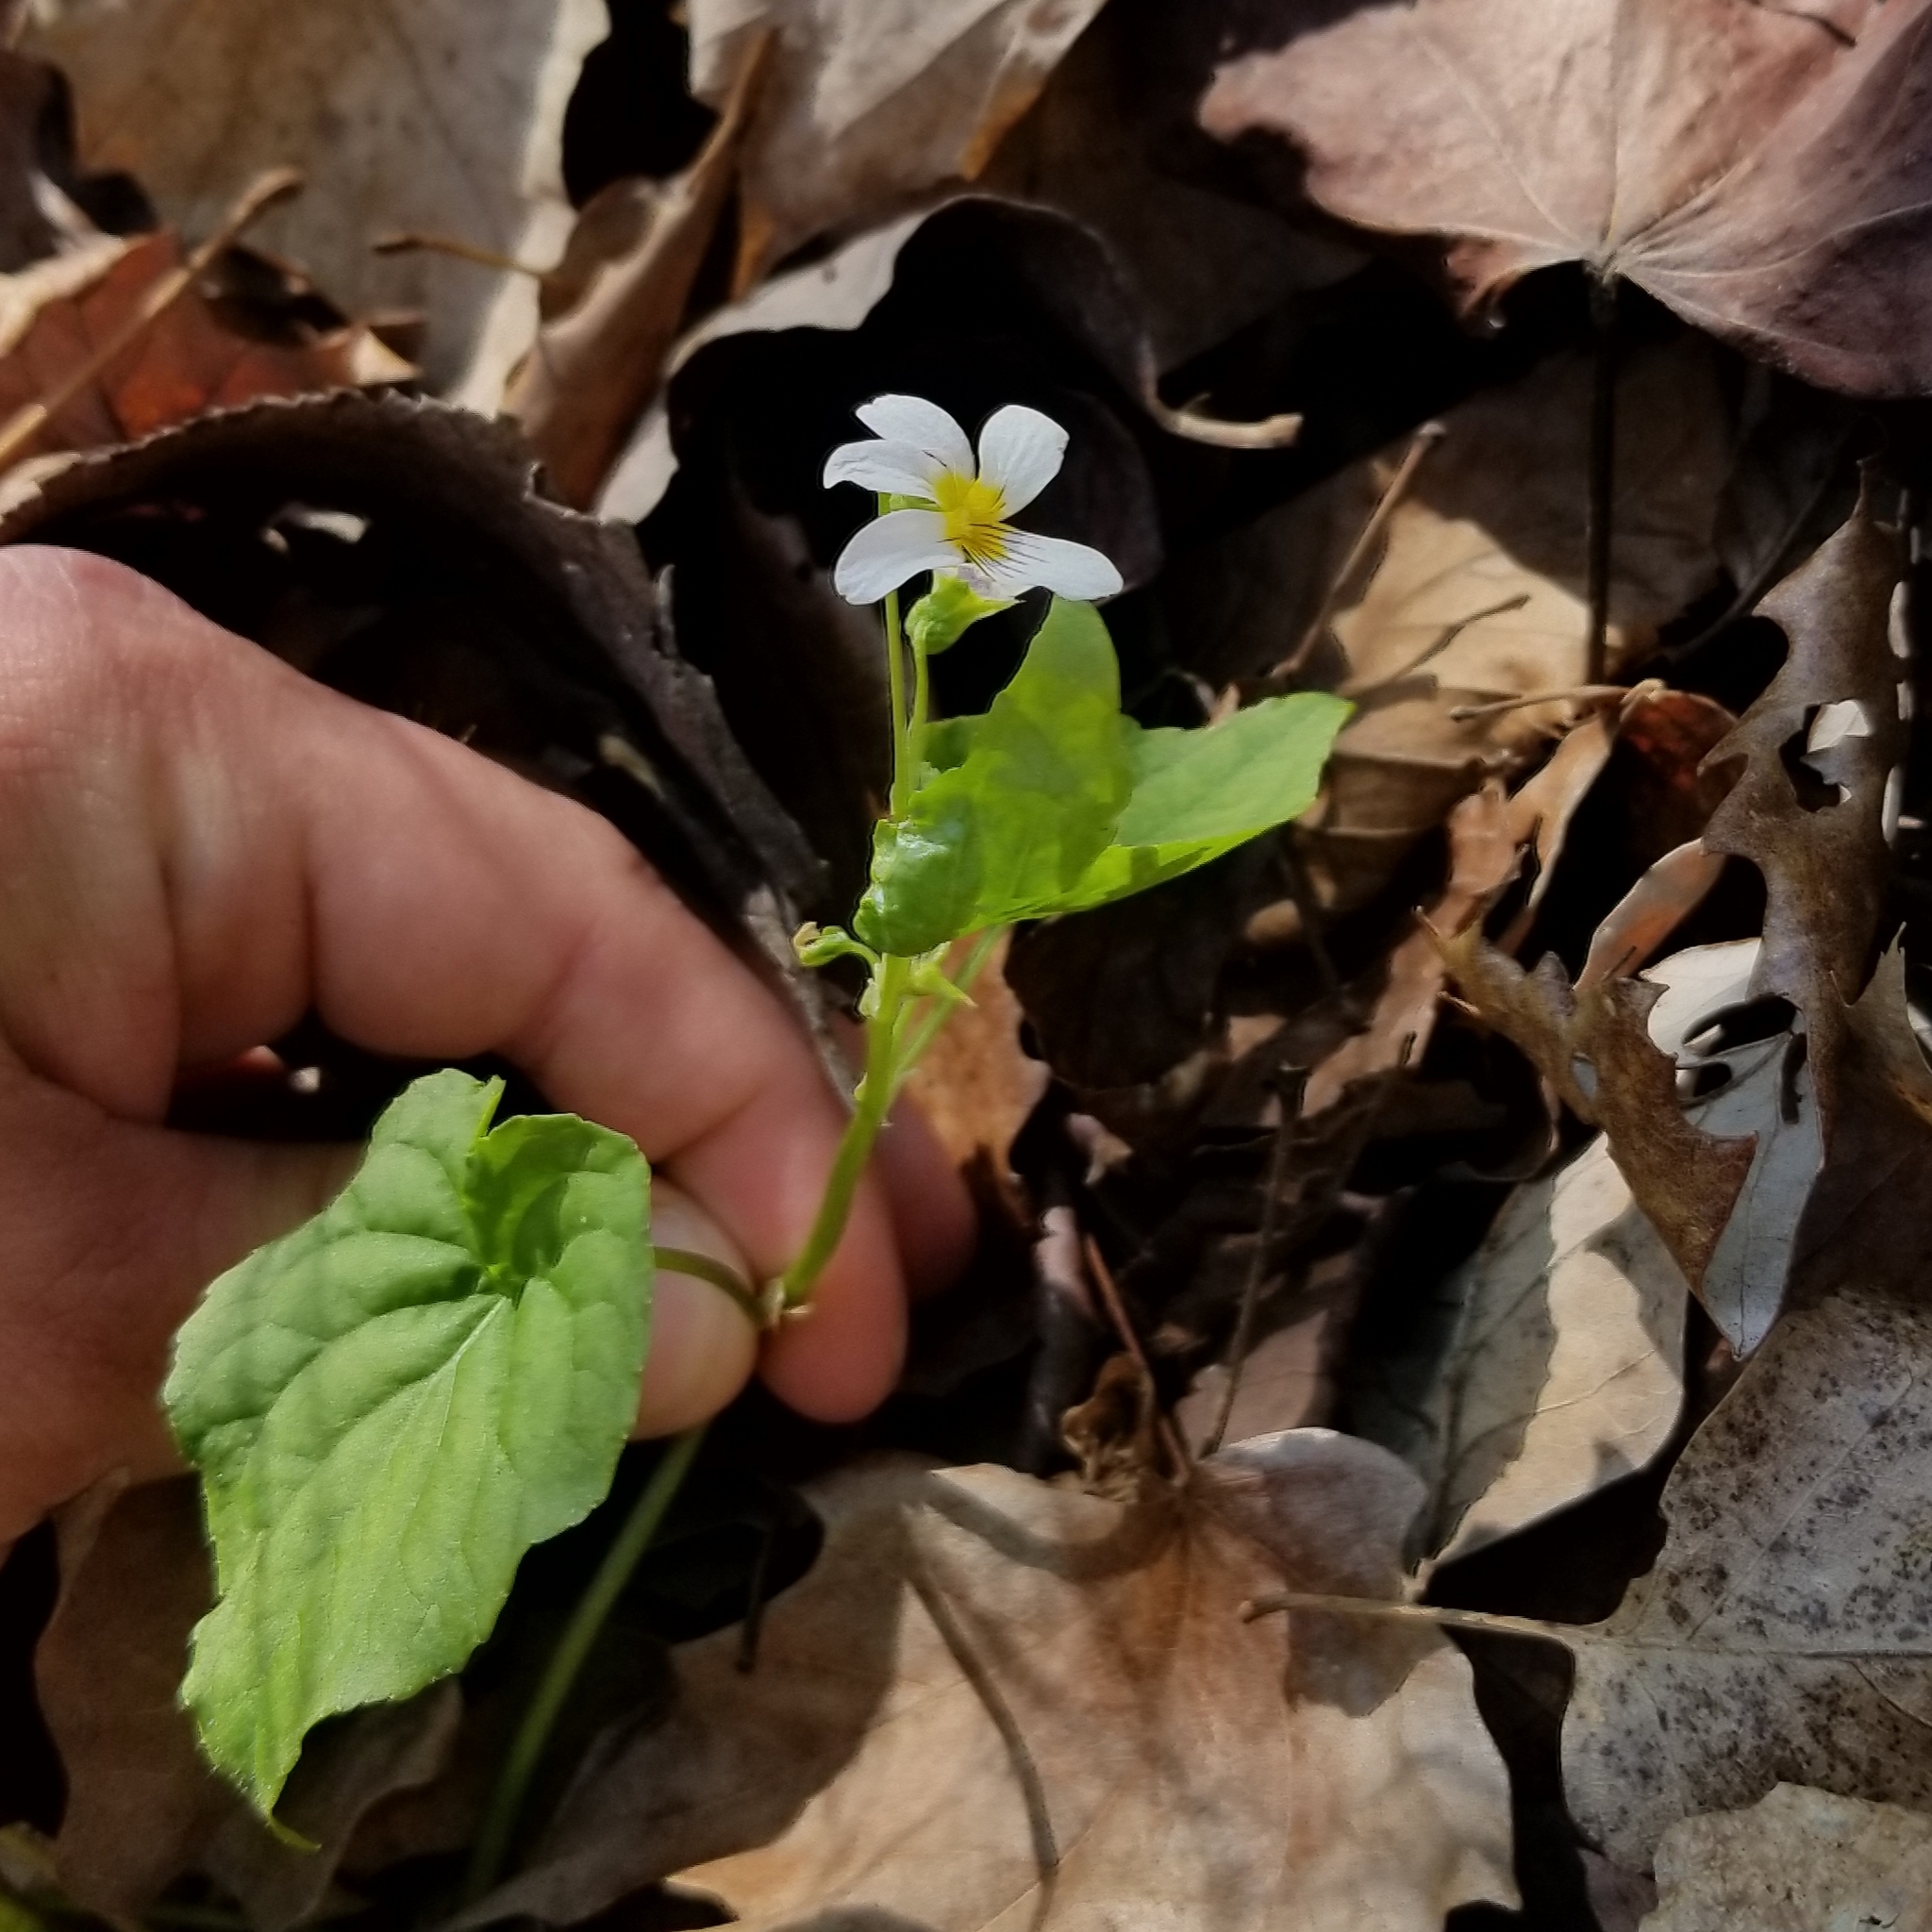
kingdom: Plantae
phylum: Tracheophyta
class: Magnoliopsida
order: Malpighiales
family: Violaceae
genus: Viola
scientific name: Viola canadensis
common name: Canada violet
